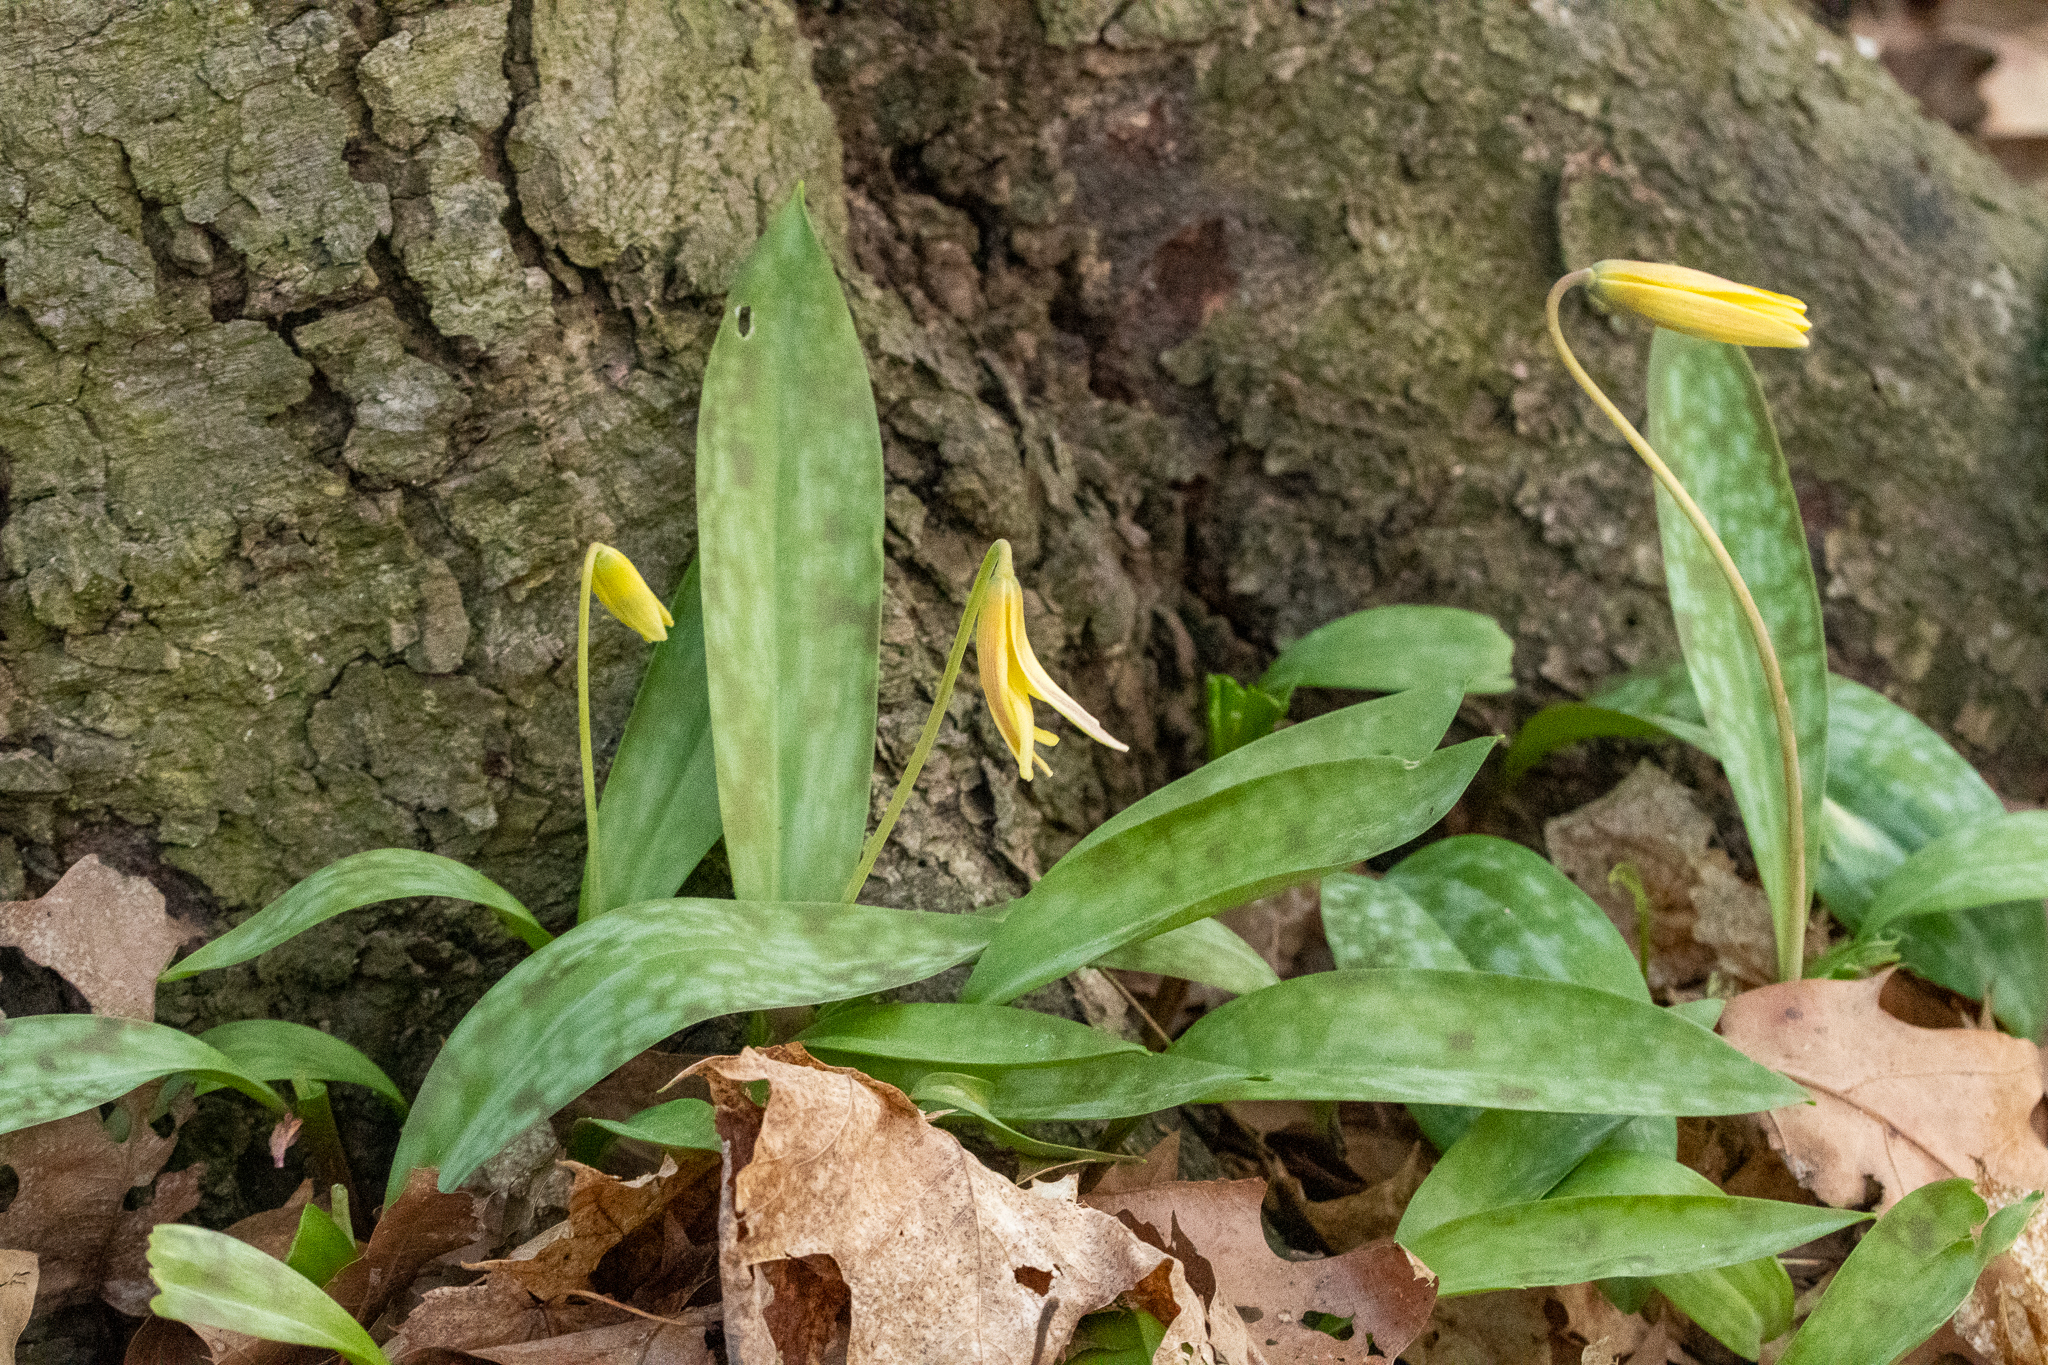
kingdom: Plantae
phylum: Tracheophyta
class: Liliopsida
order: Liliales
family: Liliaceae
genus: Erythronium
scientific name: Erythronium americanum
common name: Yellow adder's-tongue
